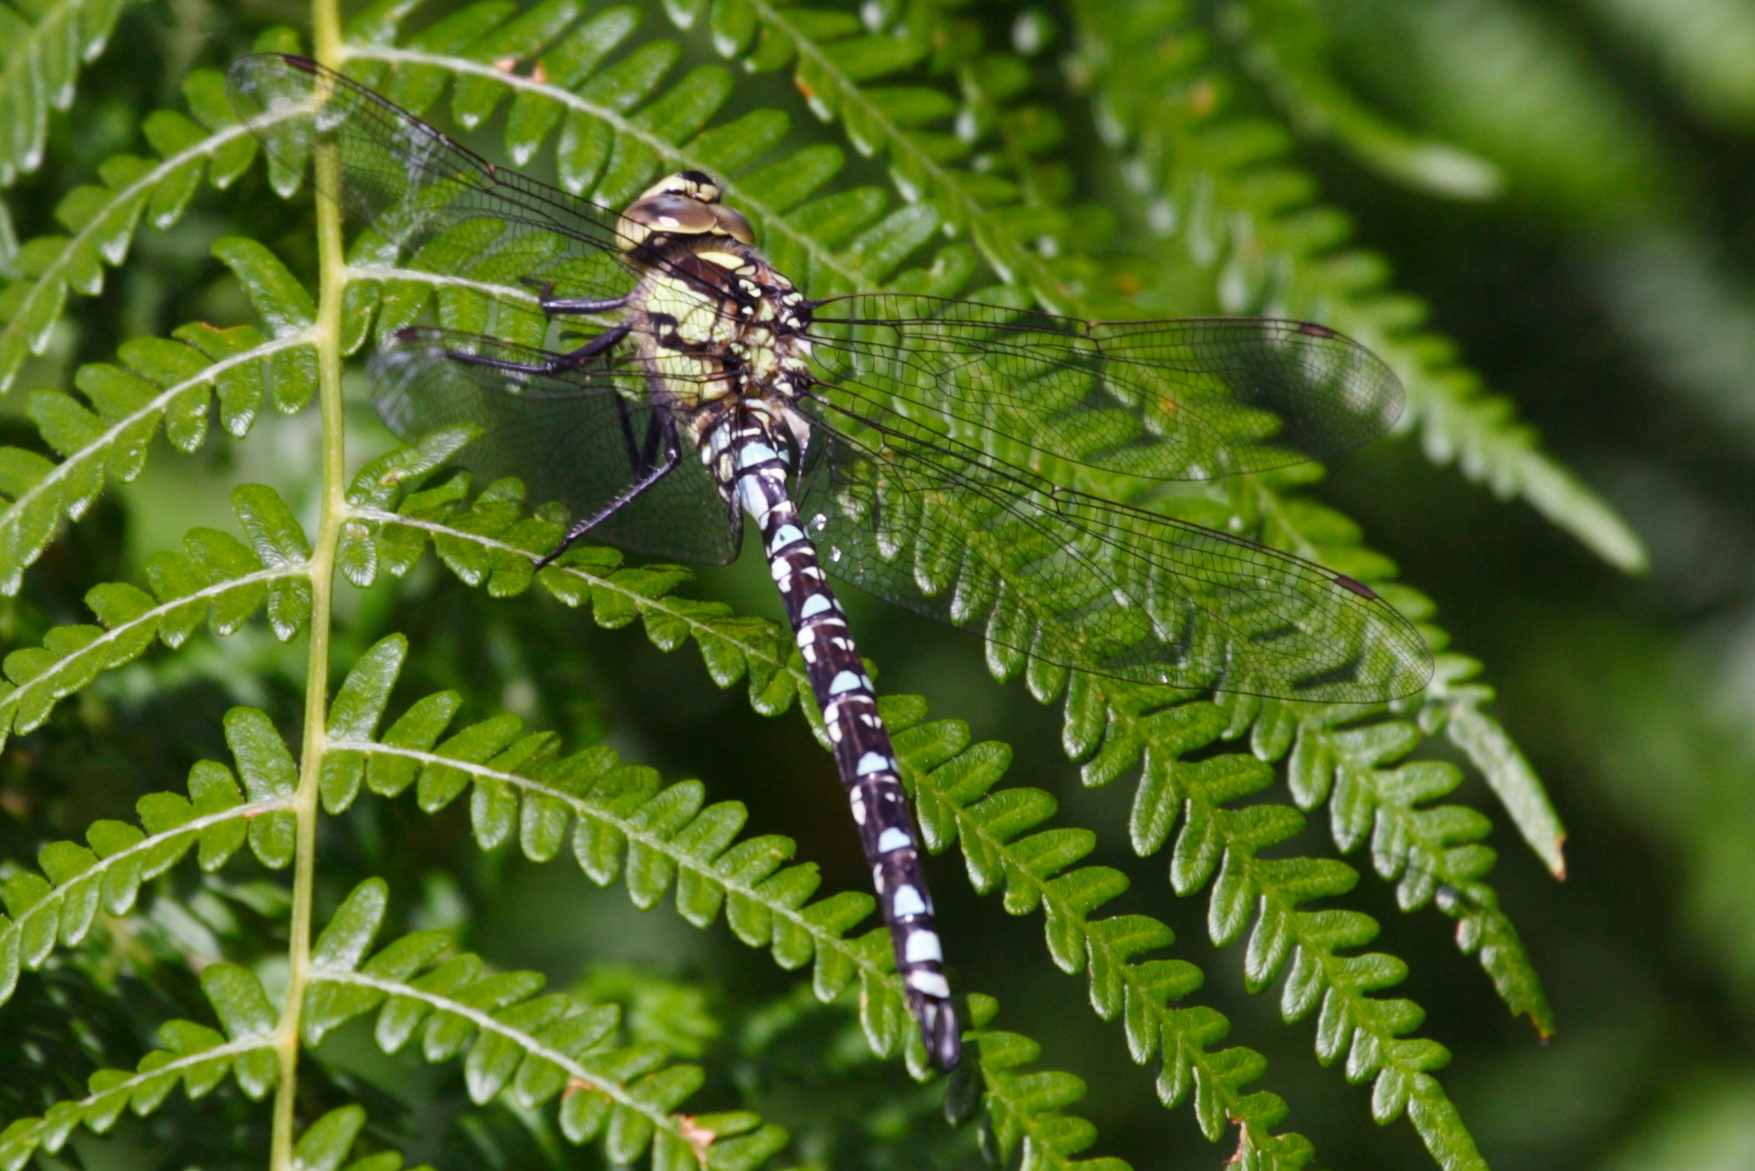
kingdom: Animalia
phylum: Arthropoda
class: Insecta
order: Odonata
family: Aeshnidae
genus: Aeshna
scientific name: Aeshna cyanea
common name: Southern hawker
